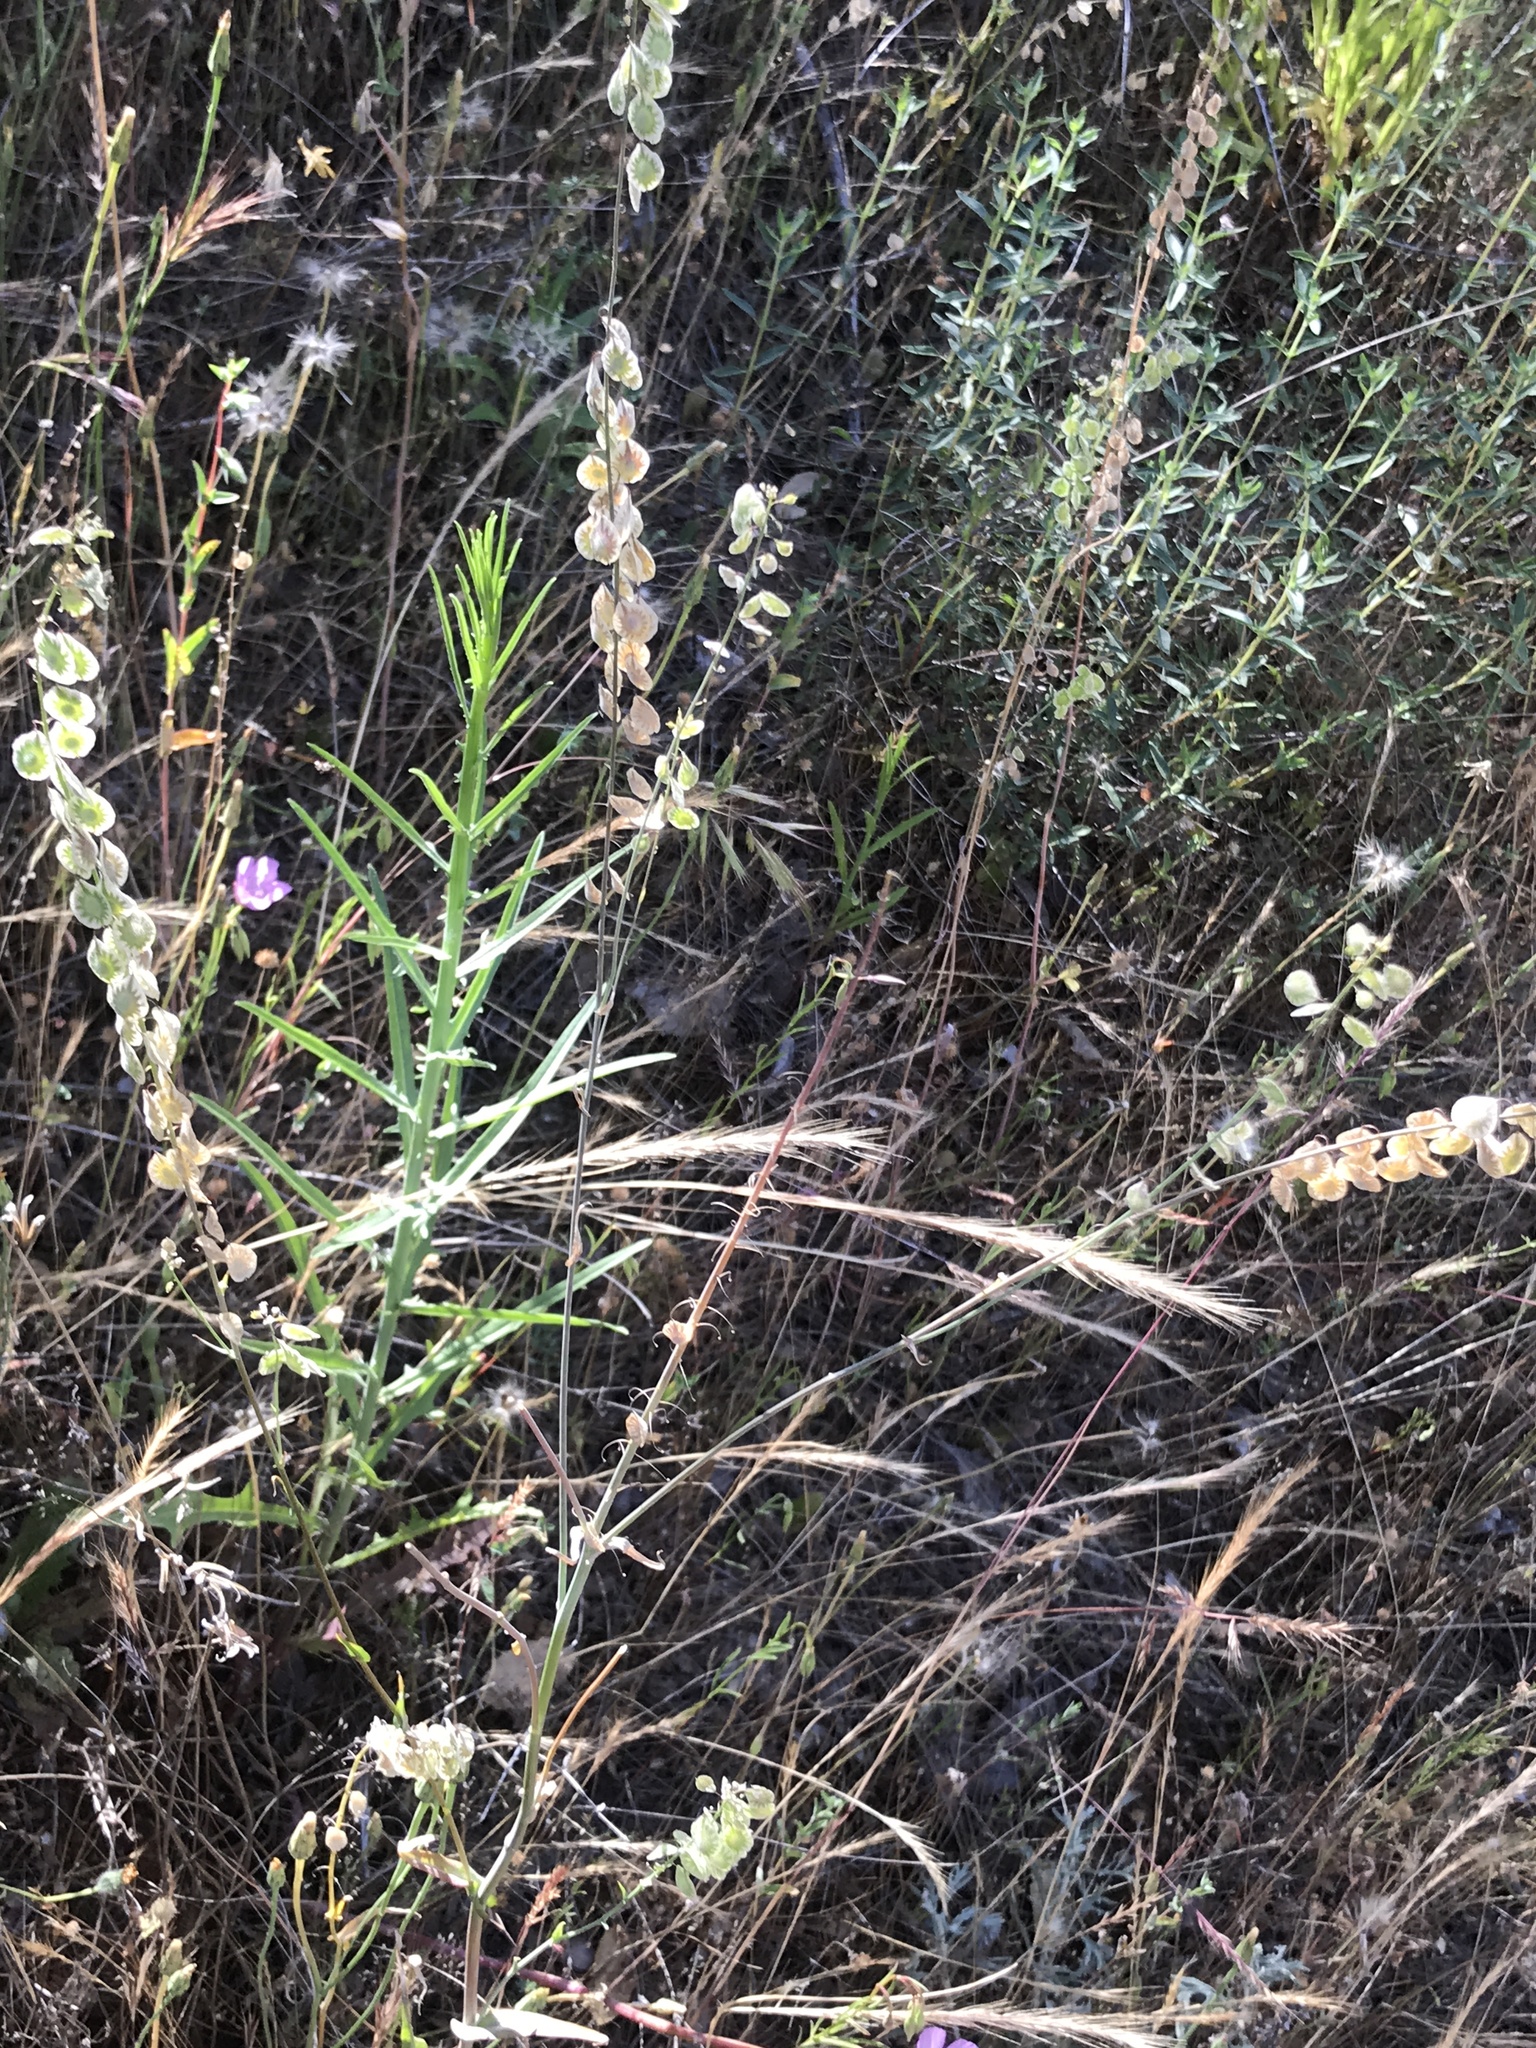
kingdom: Plantae
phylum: Tracheophyta
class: Magnoliopsida
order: Brassicales
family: Brassicaceae
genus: Thysanocarpus
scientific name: Thysanocarpus curvipes
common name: Sand fringepod
